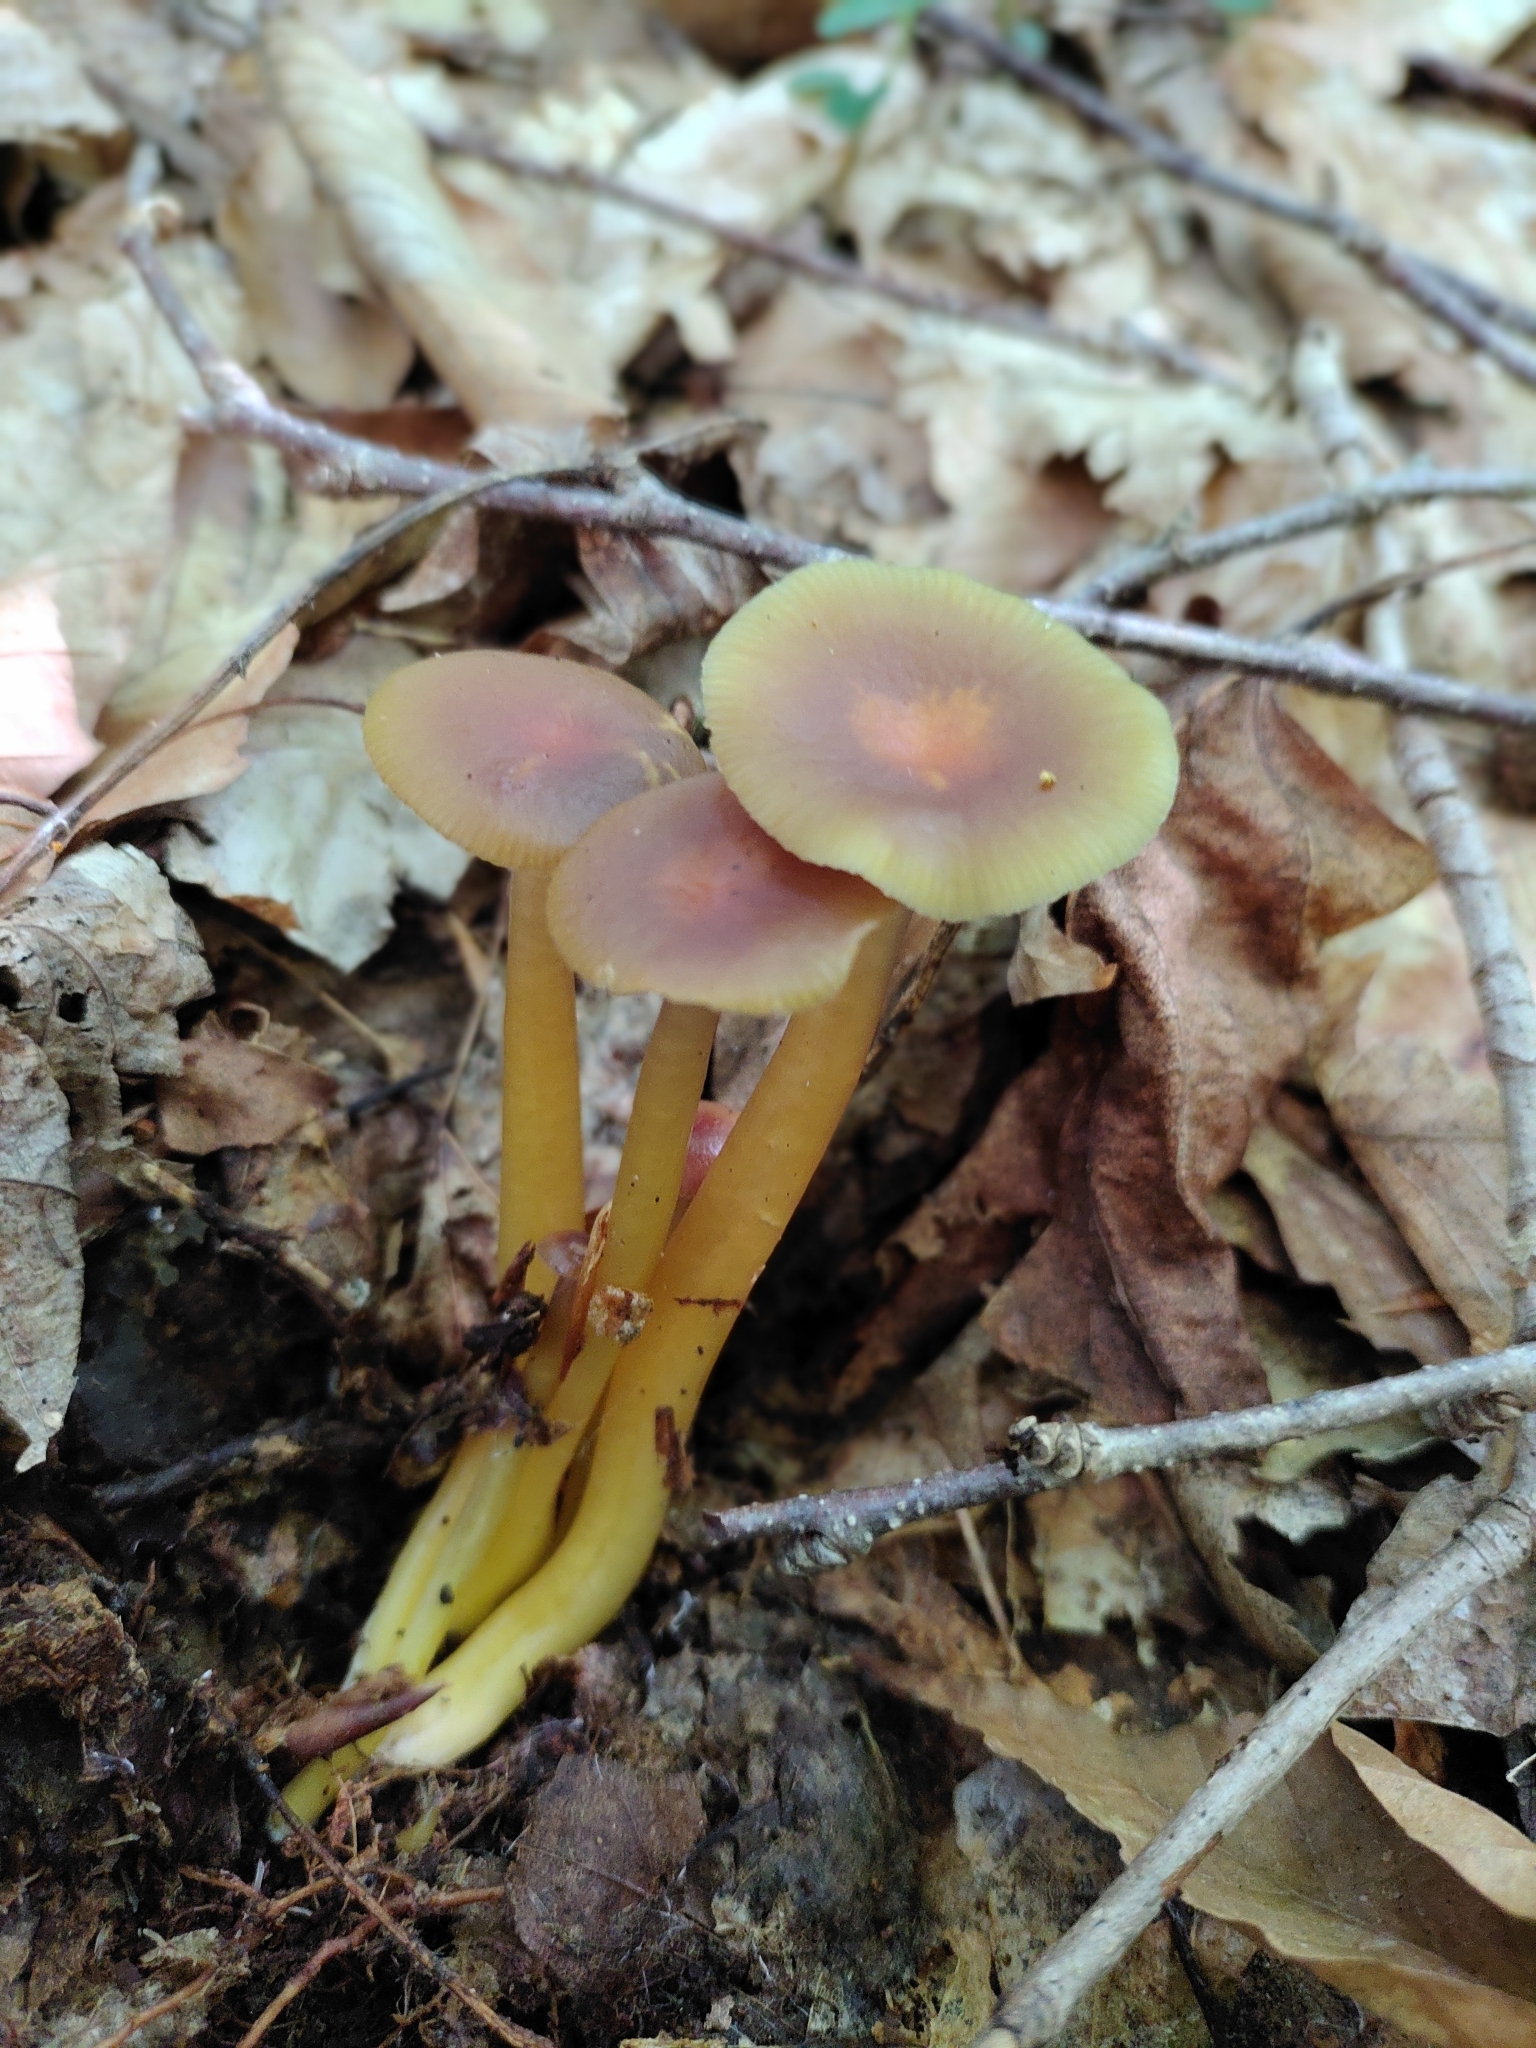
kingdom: Fungi
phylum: Basidiomycota
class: Agaricomycetes
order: Agaricales
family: Hygrophoraceae
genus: Gliophorus
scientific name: Gliophorus laetus
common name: Heath waxcap
